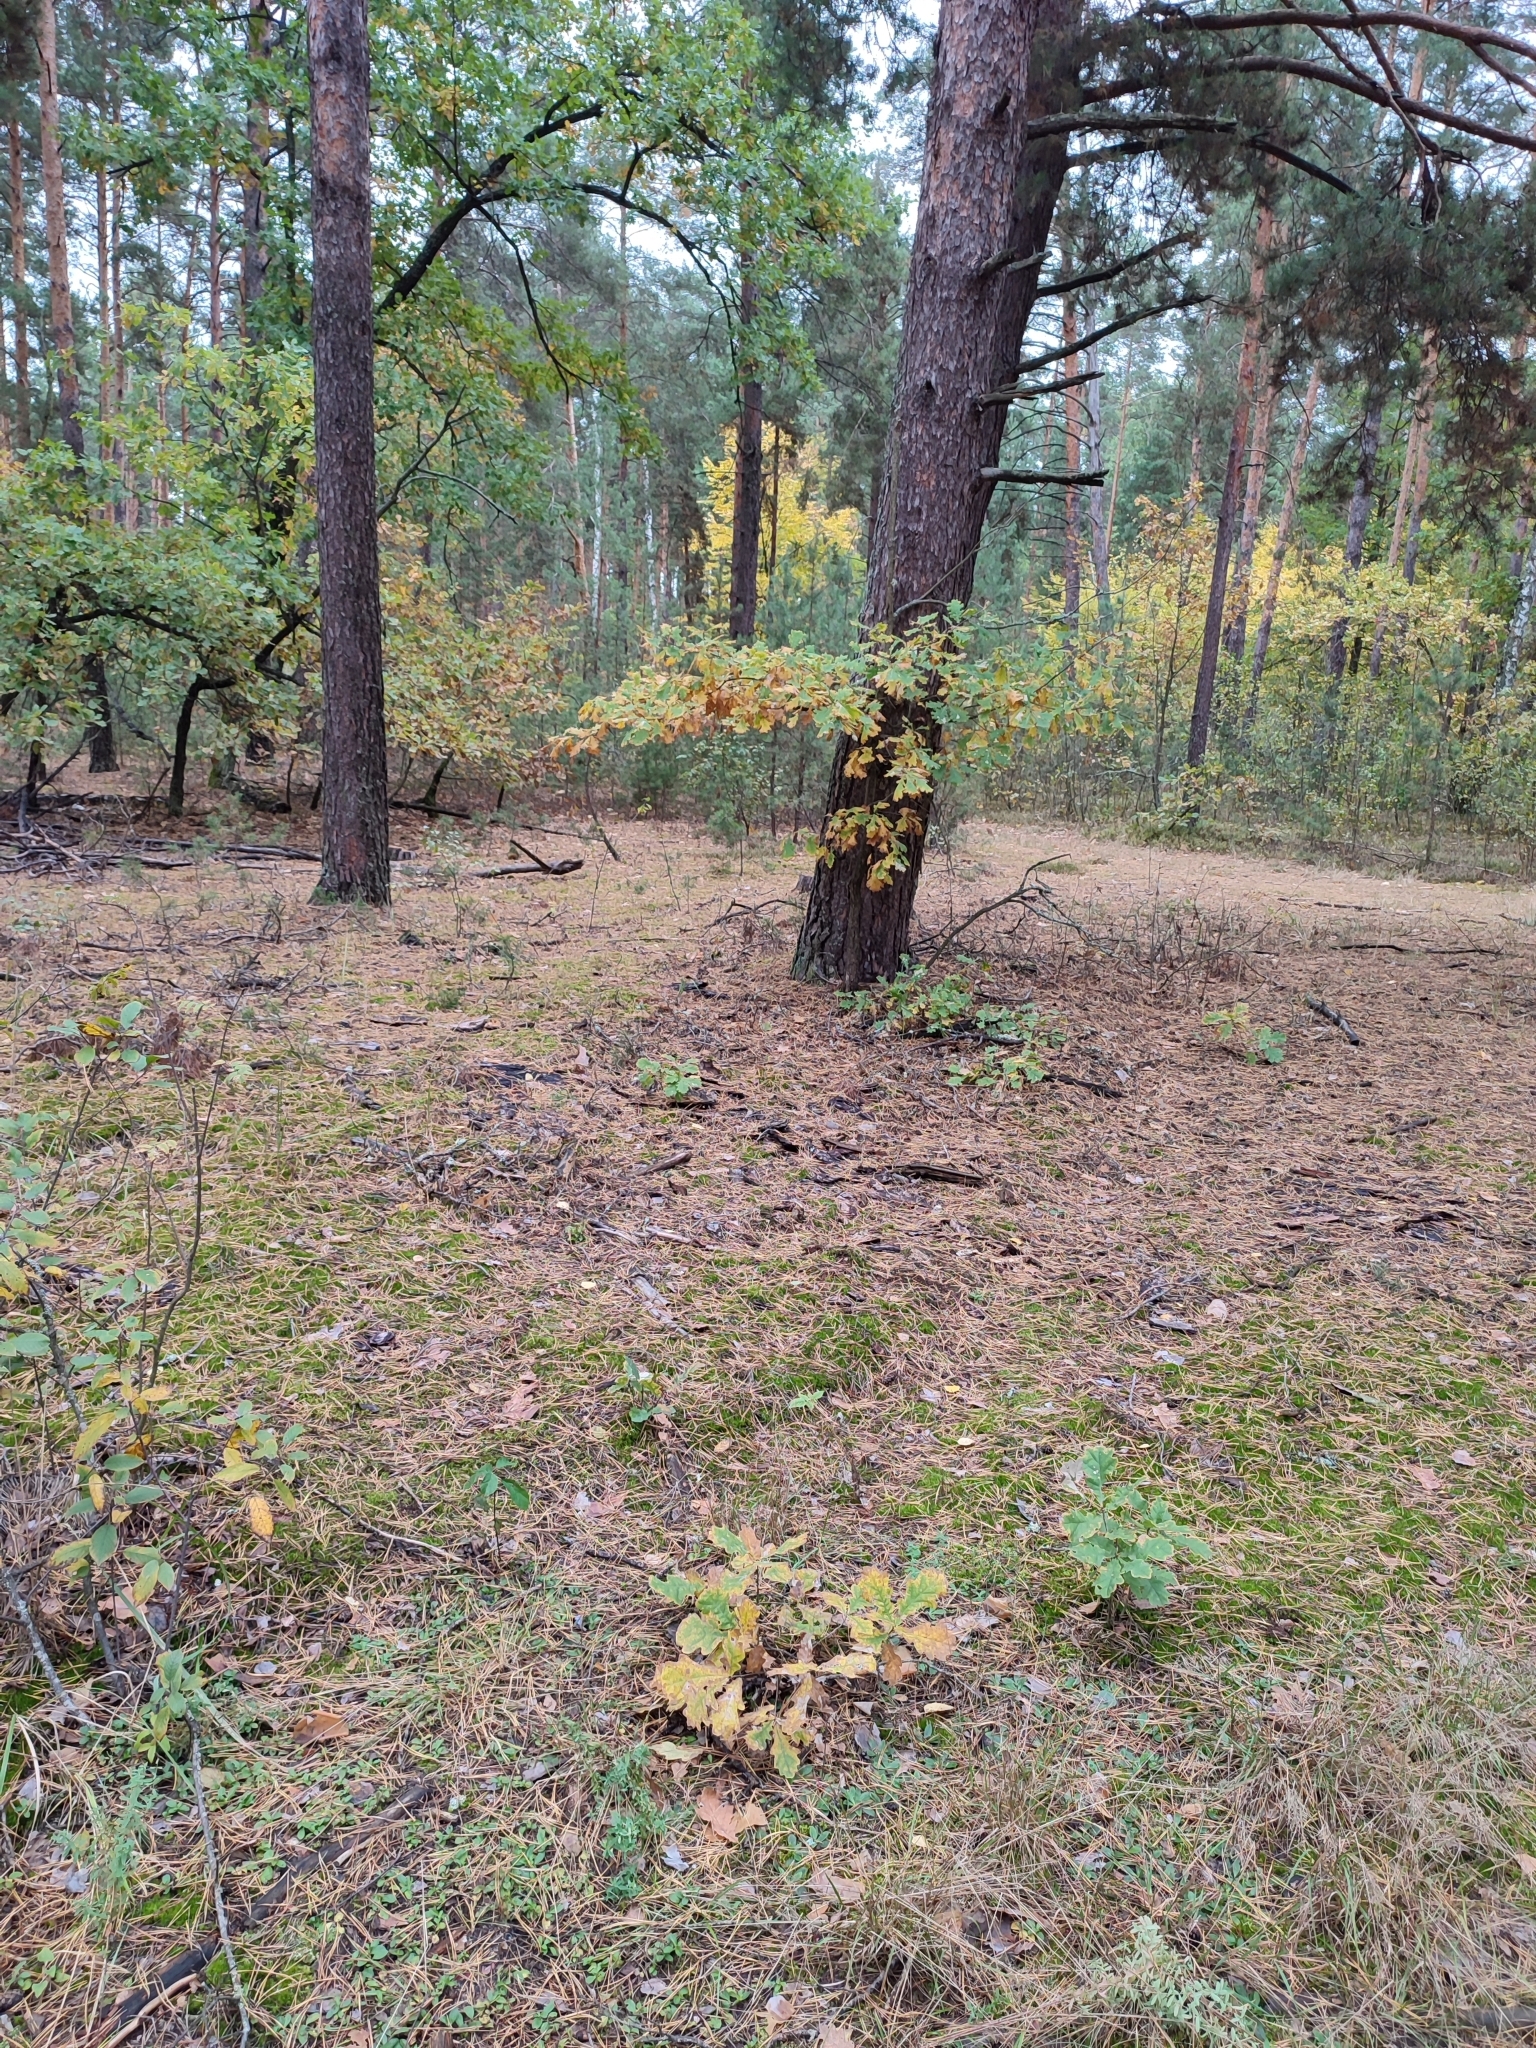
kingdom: Plantae
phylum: Tracheophyta
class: Magnoliopsida
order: Fagales
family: Fagaceae
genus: Quercus
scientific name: Quercus robur
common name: Pedunculate oak
